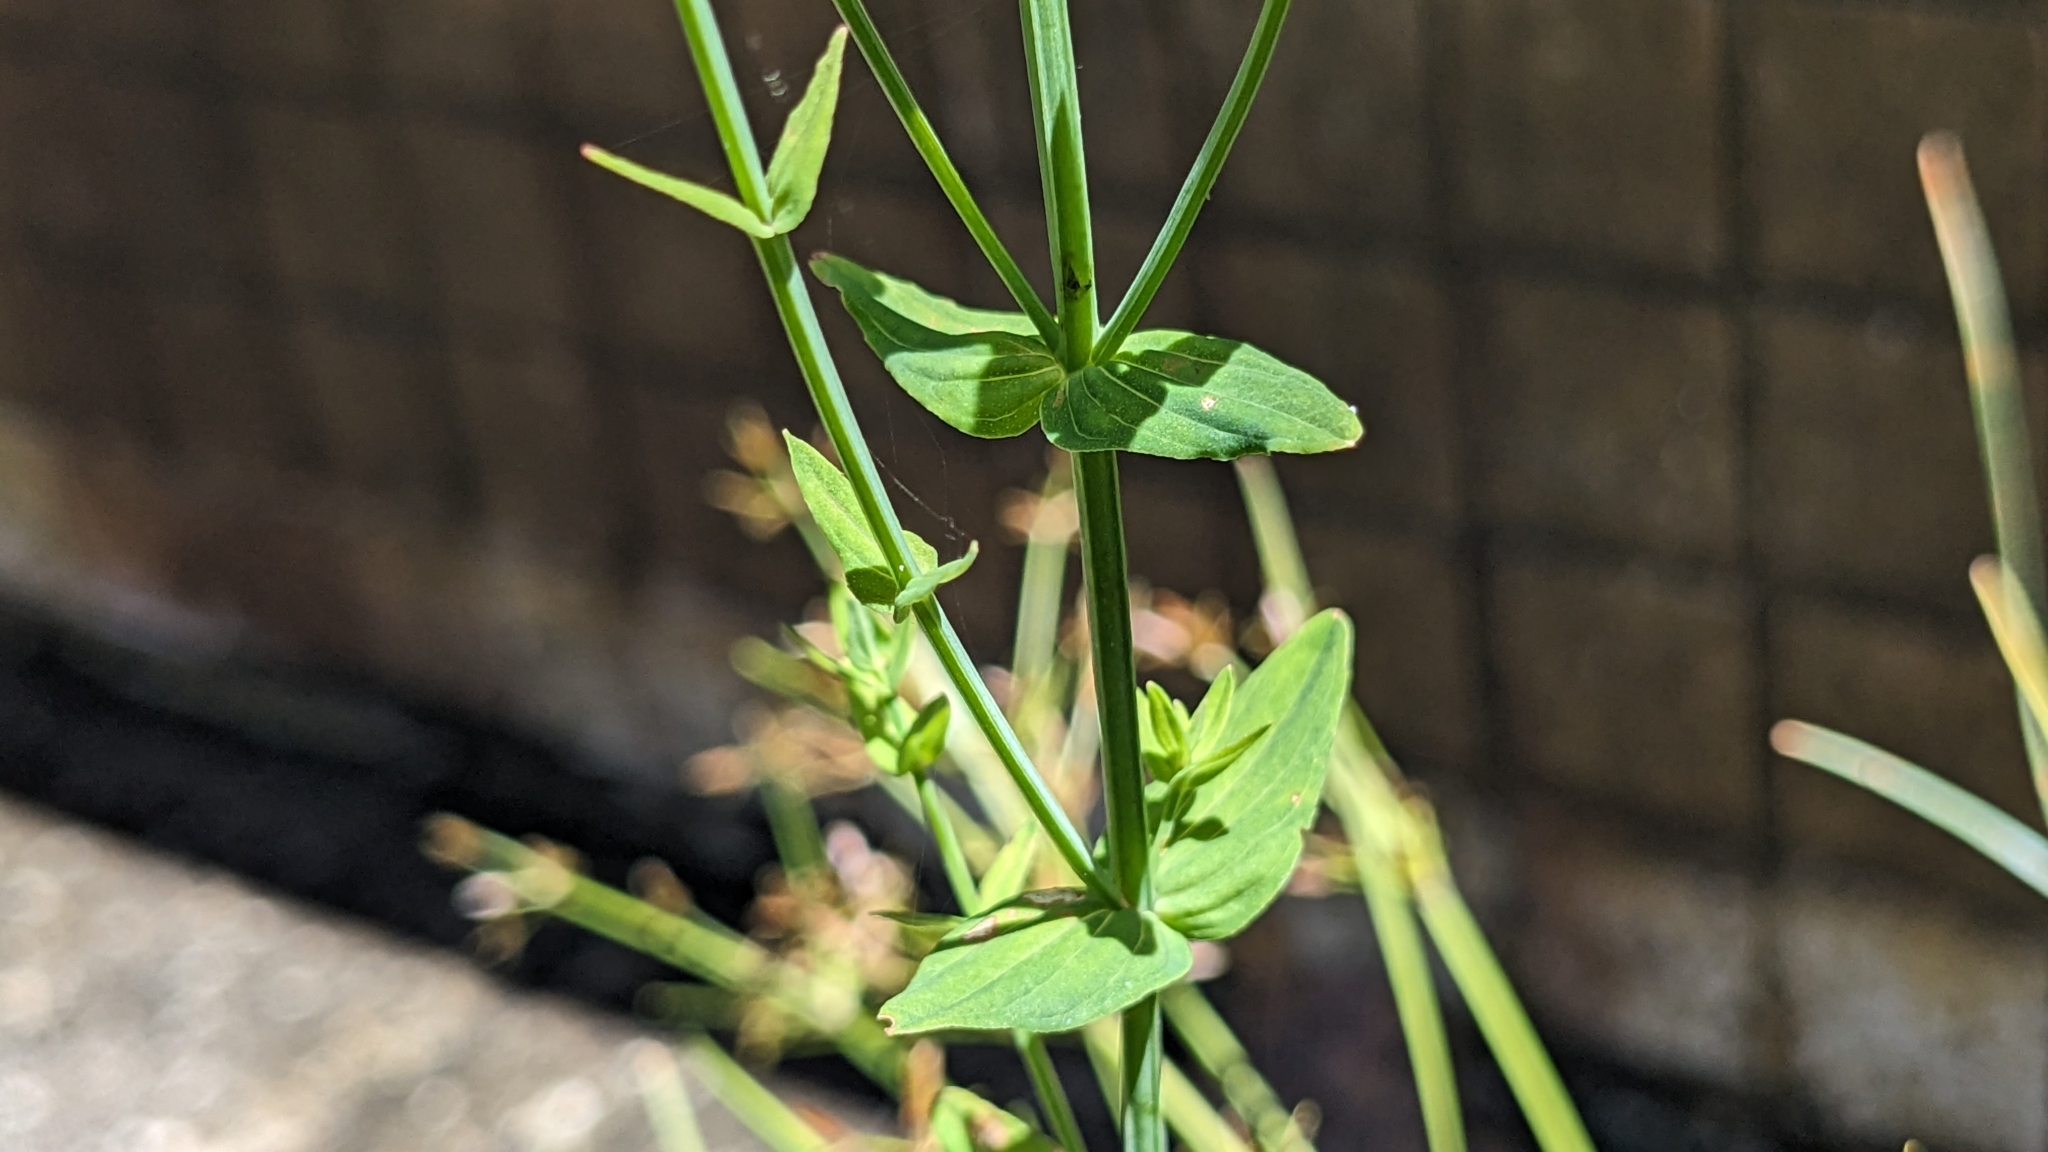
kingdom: Plantae
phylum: Tracheophyta
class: Magnoliopsida
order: Malpighiales
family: Hypericaceae
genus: Hypericum
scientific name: Hypericum japonicum
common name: Matted st. john's-wort
